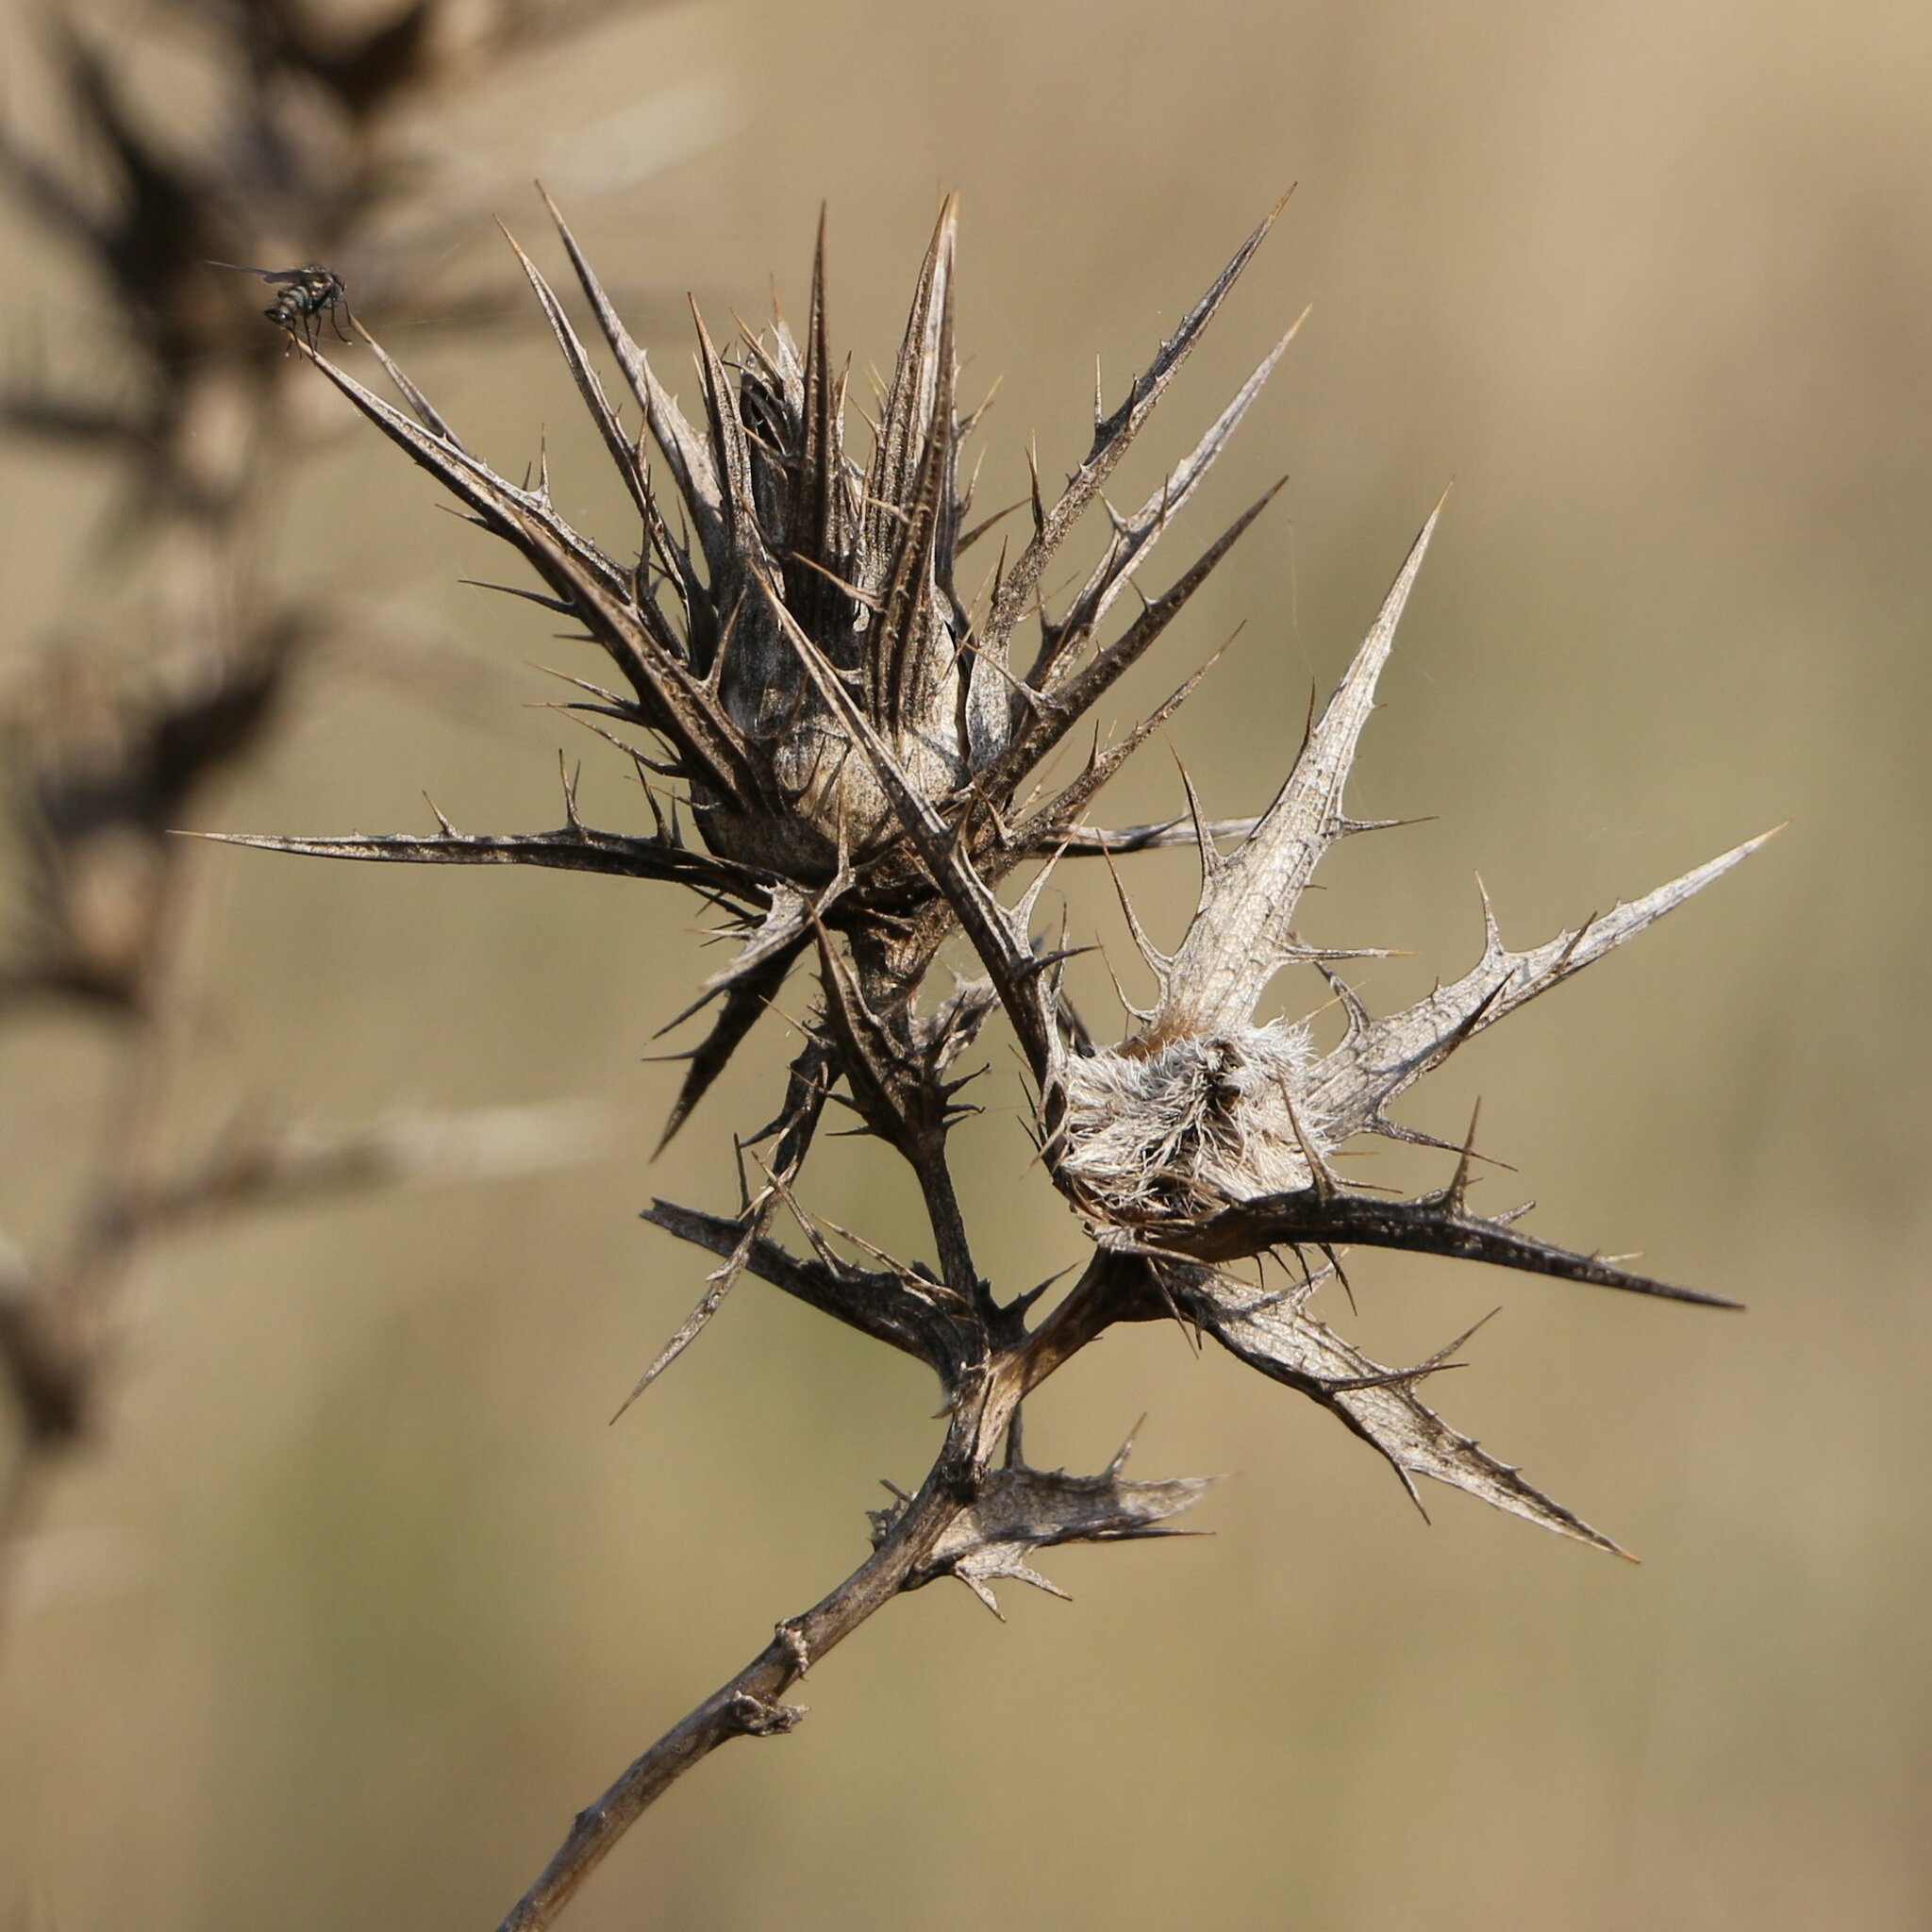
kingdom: Plantae
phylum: Tracheophyta
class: Magnoliopsida
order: Asterales
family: Asteraceae
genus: Carthamus
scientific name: Carthamus lanatus
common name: Downy safflower
